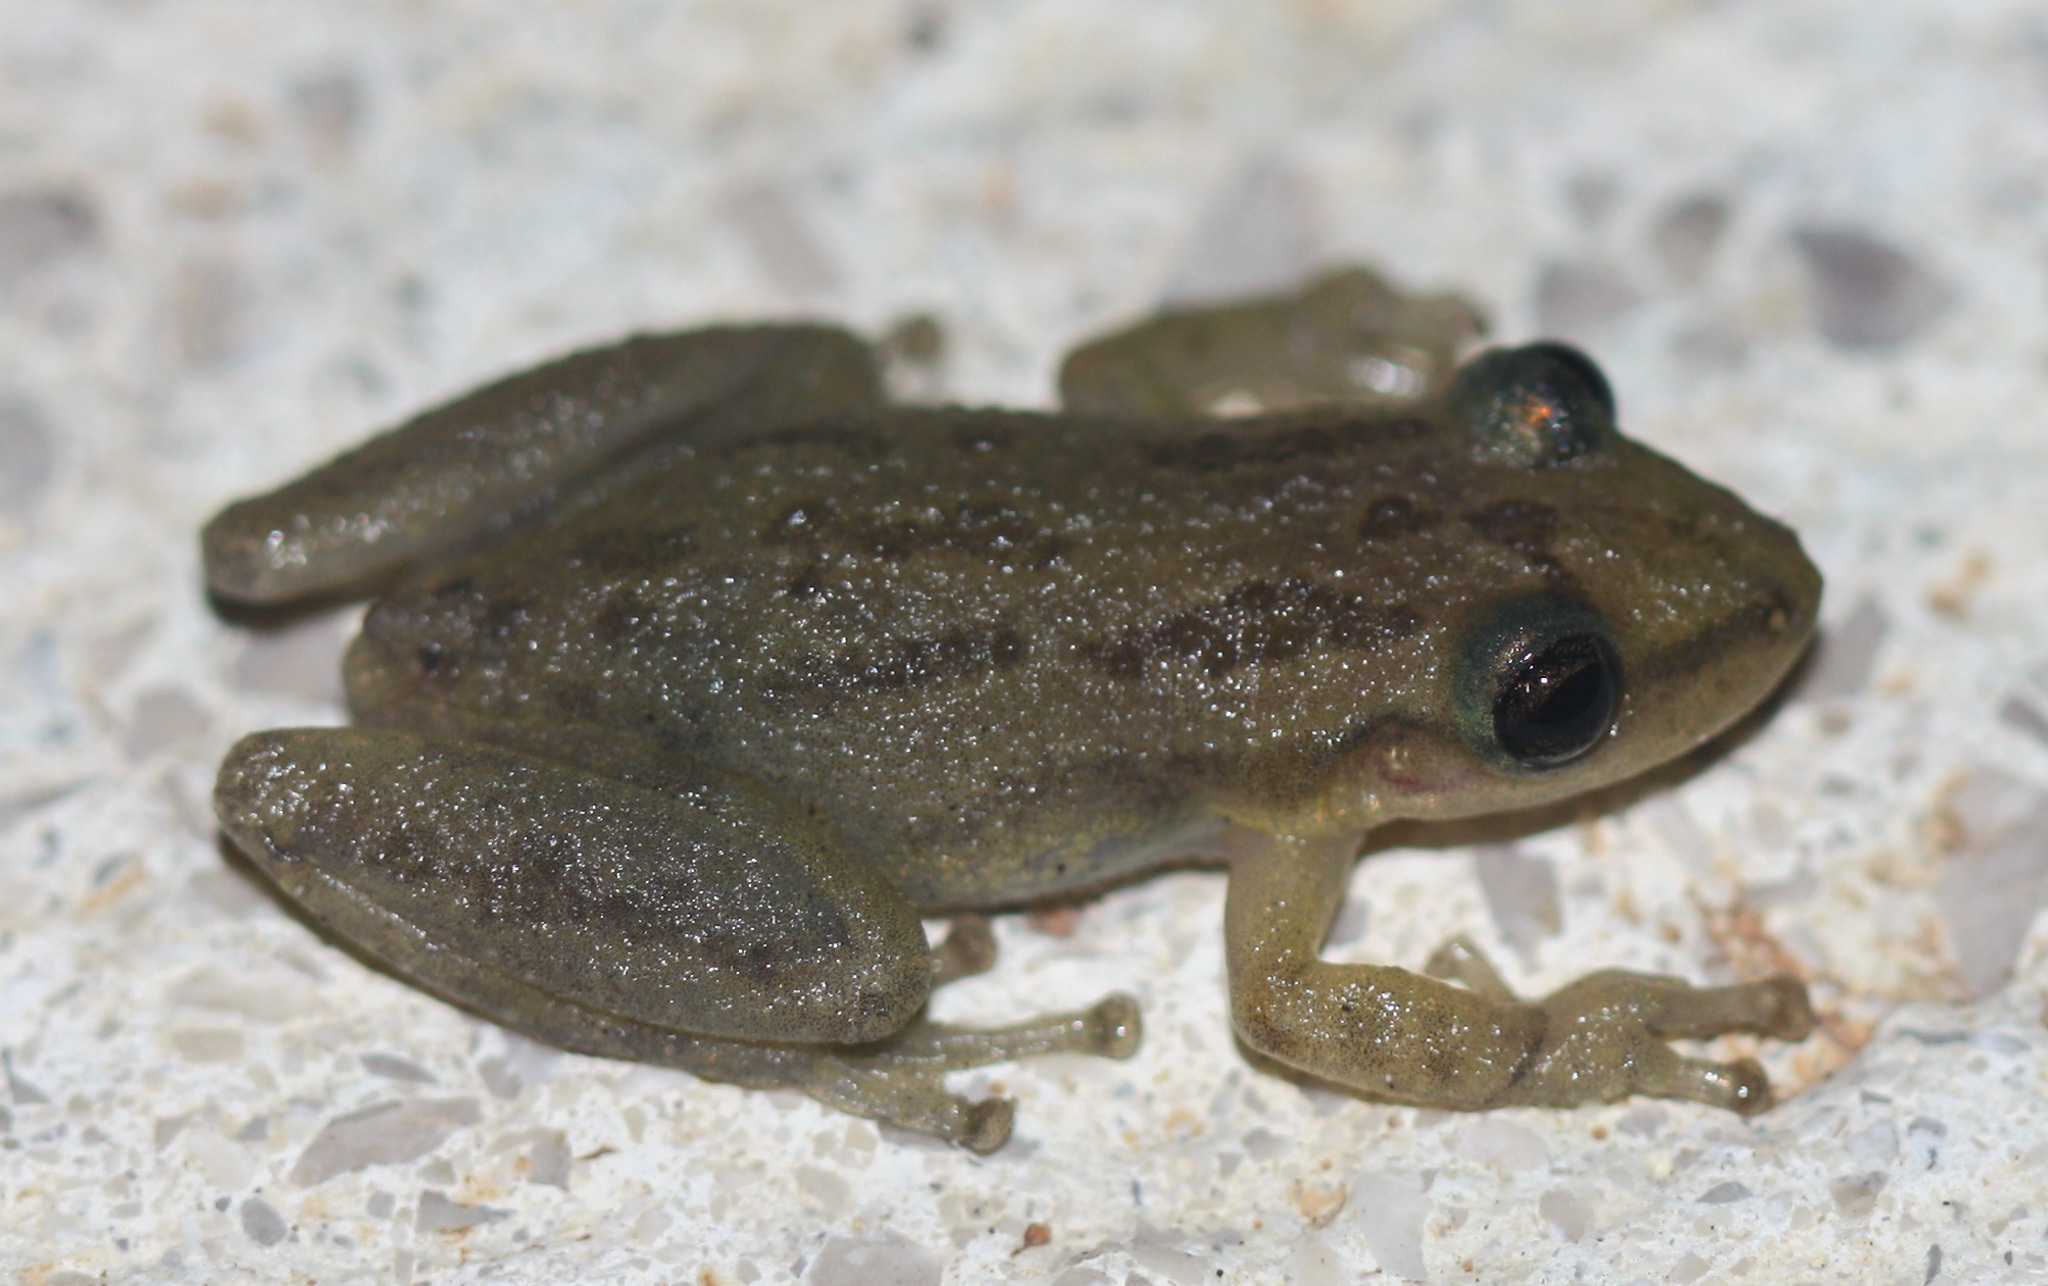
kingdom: Animalia
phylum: Chordata
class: Amphibia
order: Anura
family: Hylidae
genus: Scinax
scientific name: Scinax staufferi
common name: Stauffer's long-nosed treefrog
